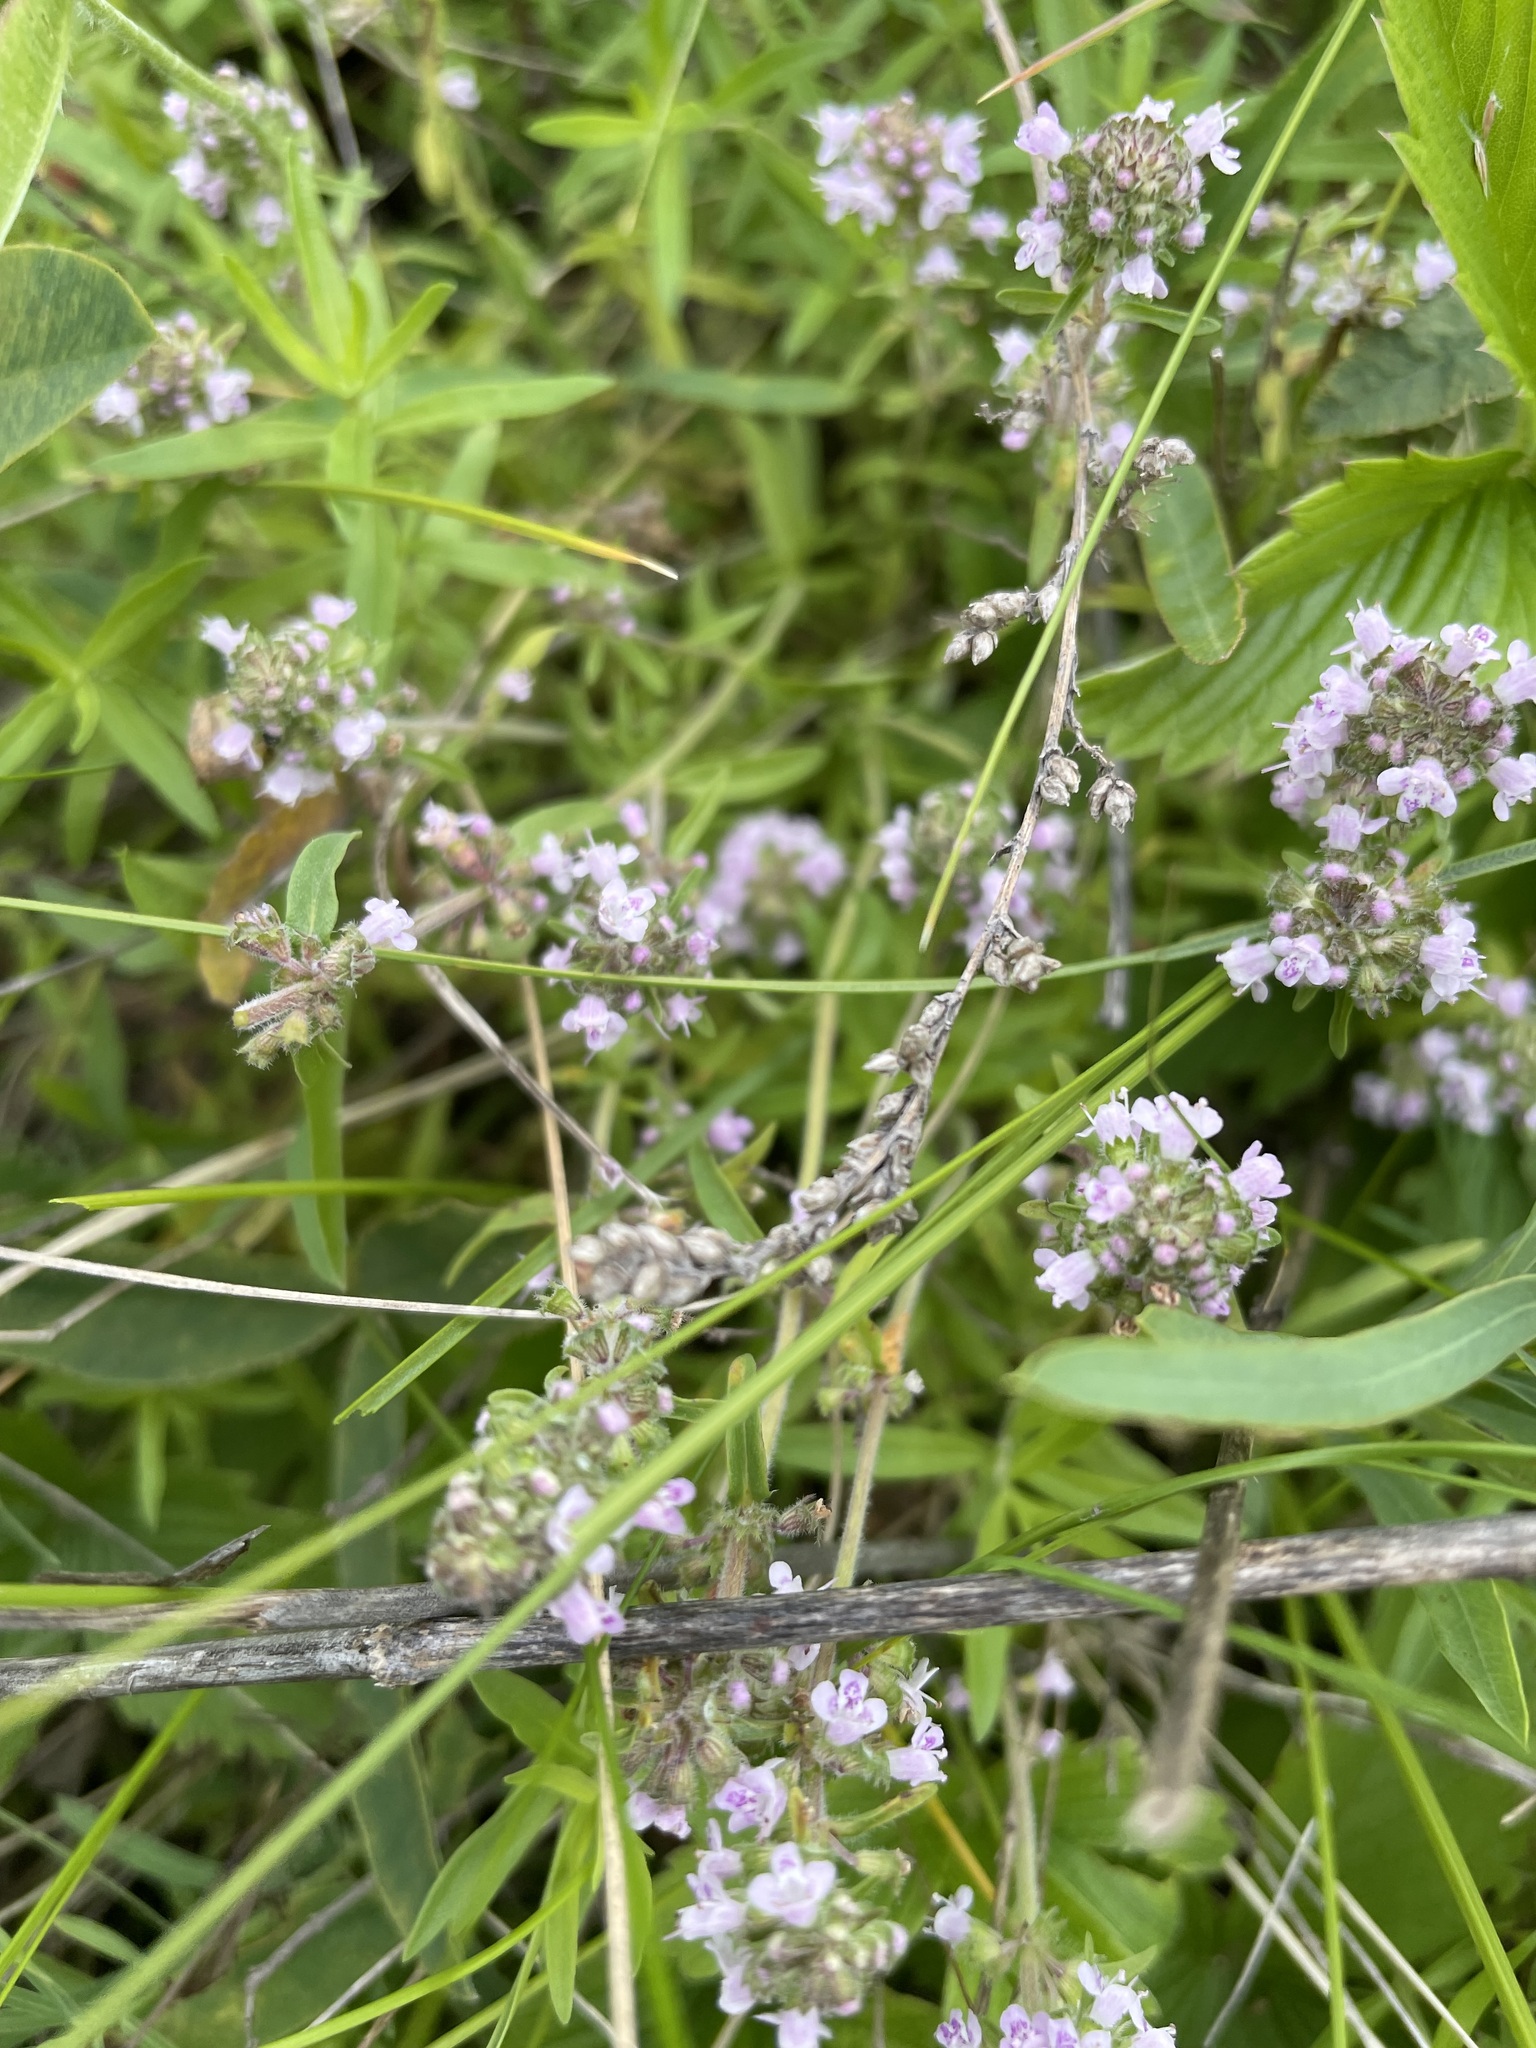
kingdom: Plantae
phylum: Tracheophyta
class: Magnoliopsida
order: Lamiales
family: Lamiaceae
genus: Thymus
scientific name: Thymus pannonicus
